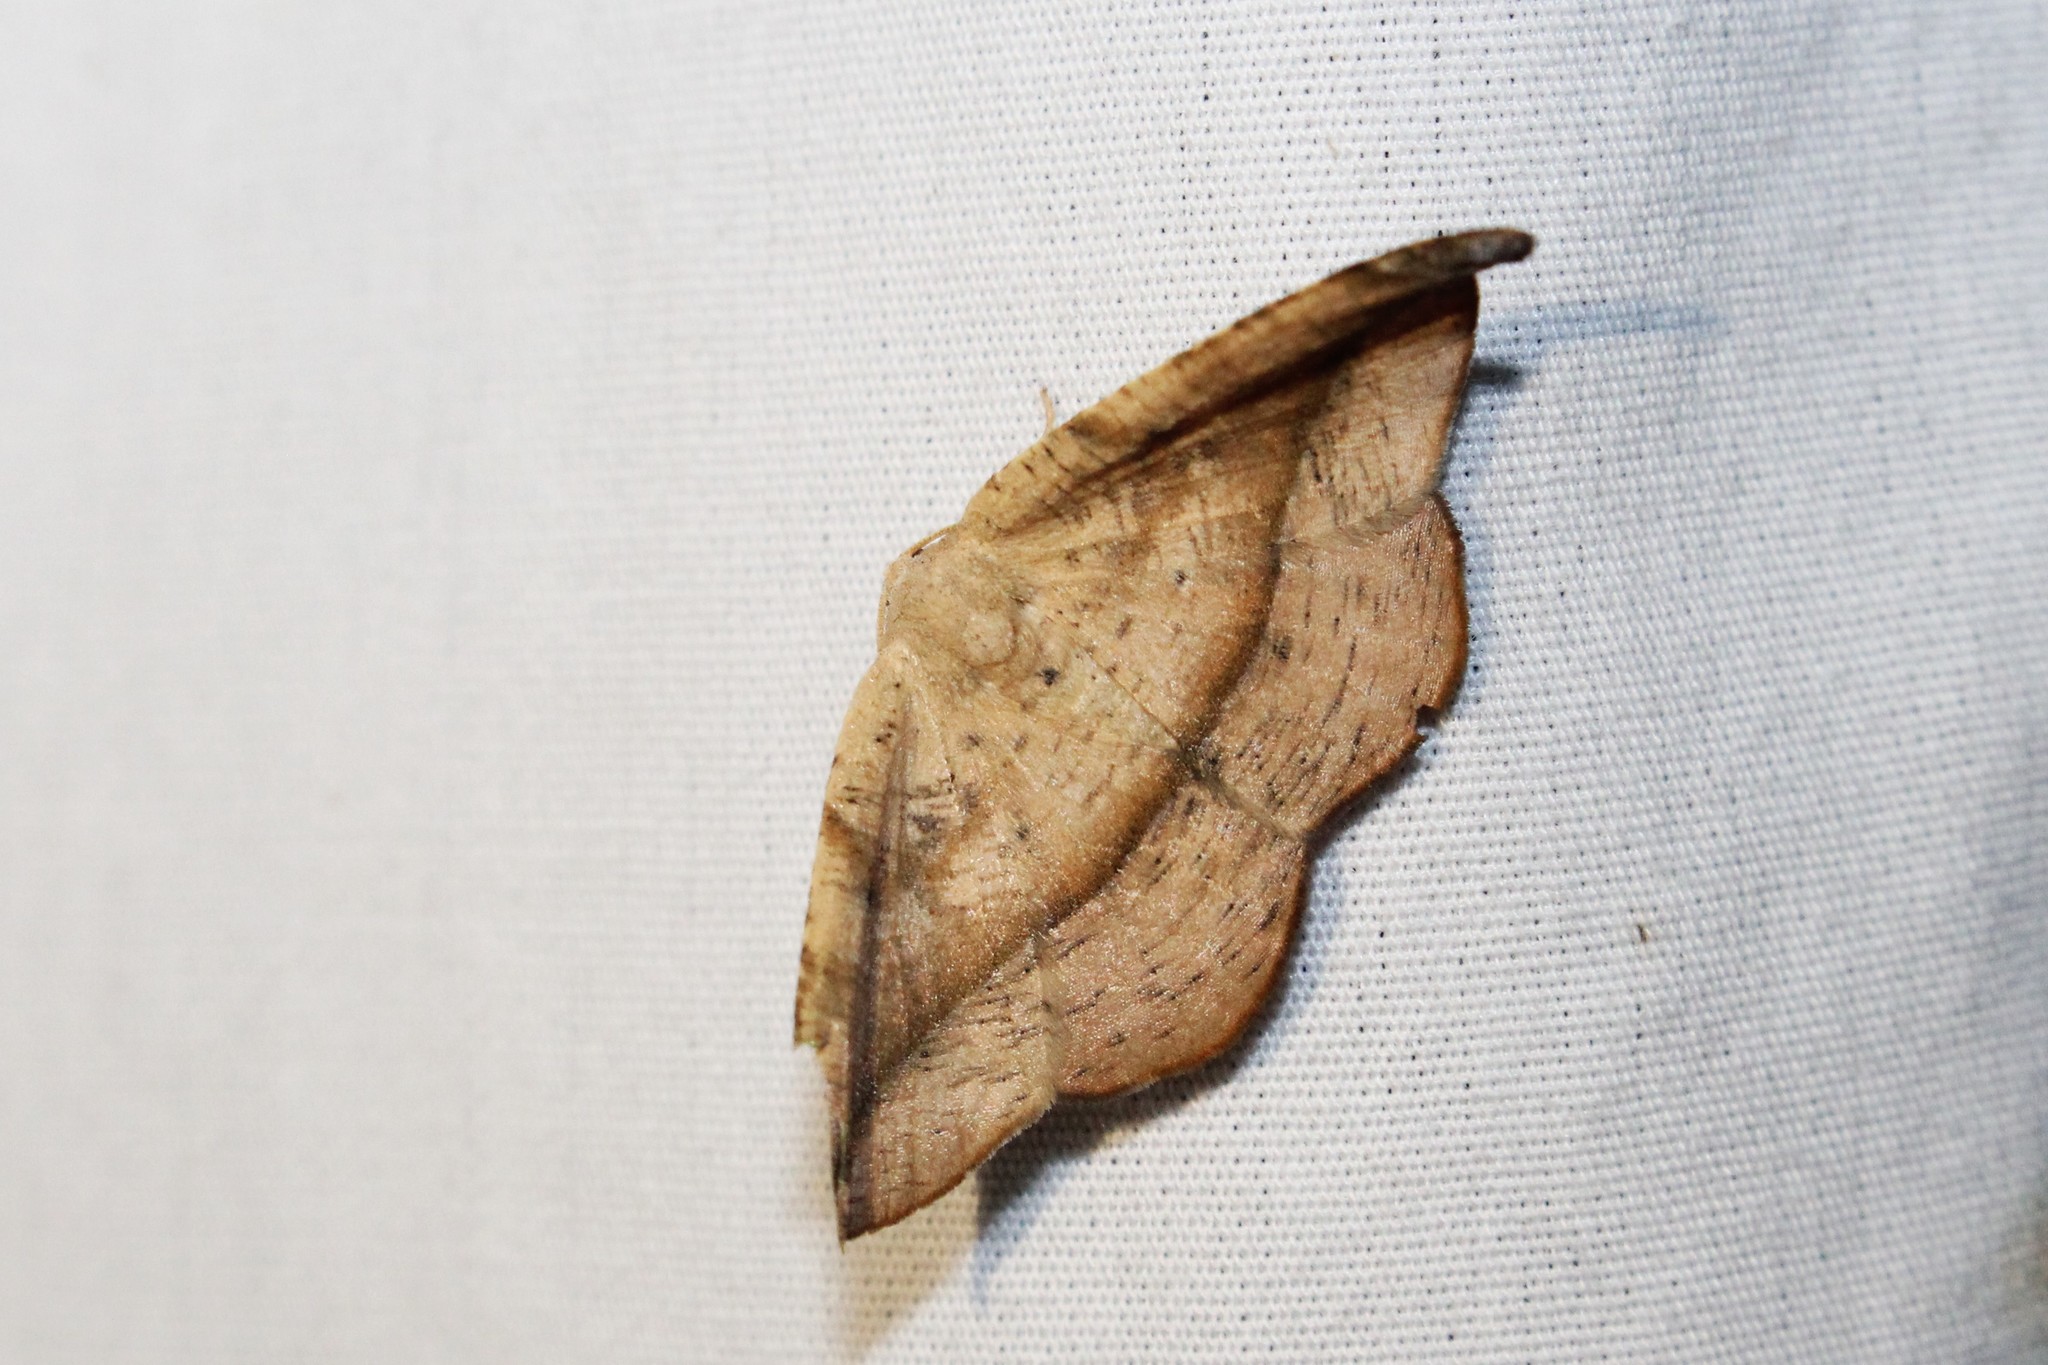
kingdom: Animalia
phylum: Arthropoda
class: Insecta
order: Lepidoptera
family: Geometridae
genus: Patalene
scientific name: Patalene olyzonaria
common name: Juniper geometer moth
